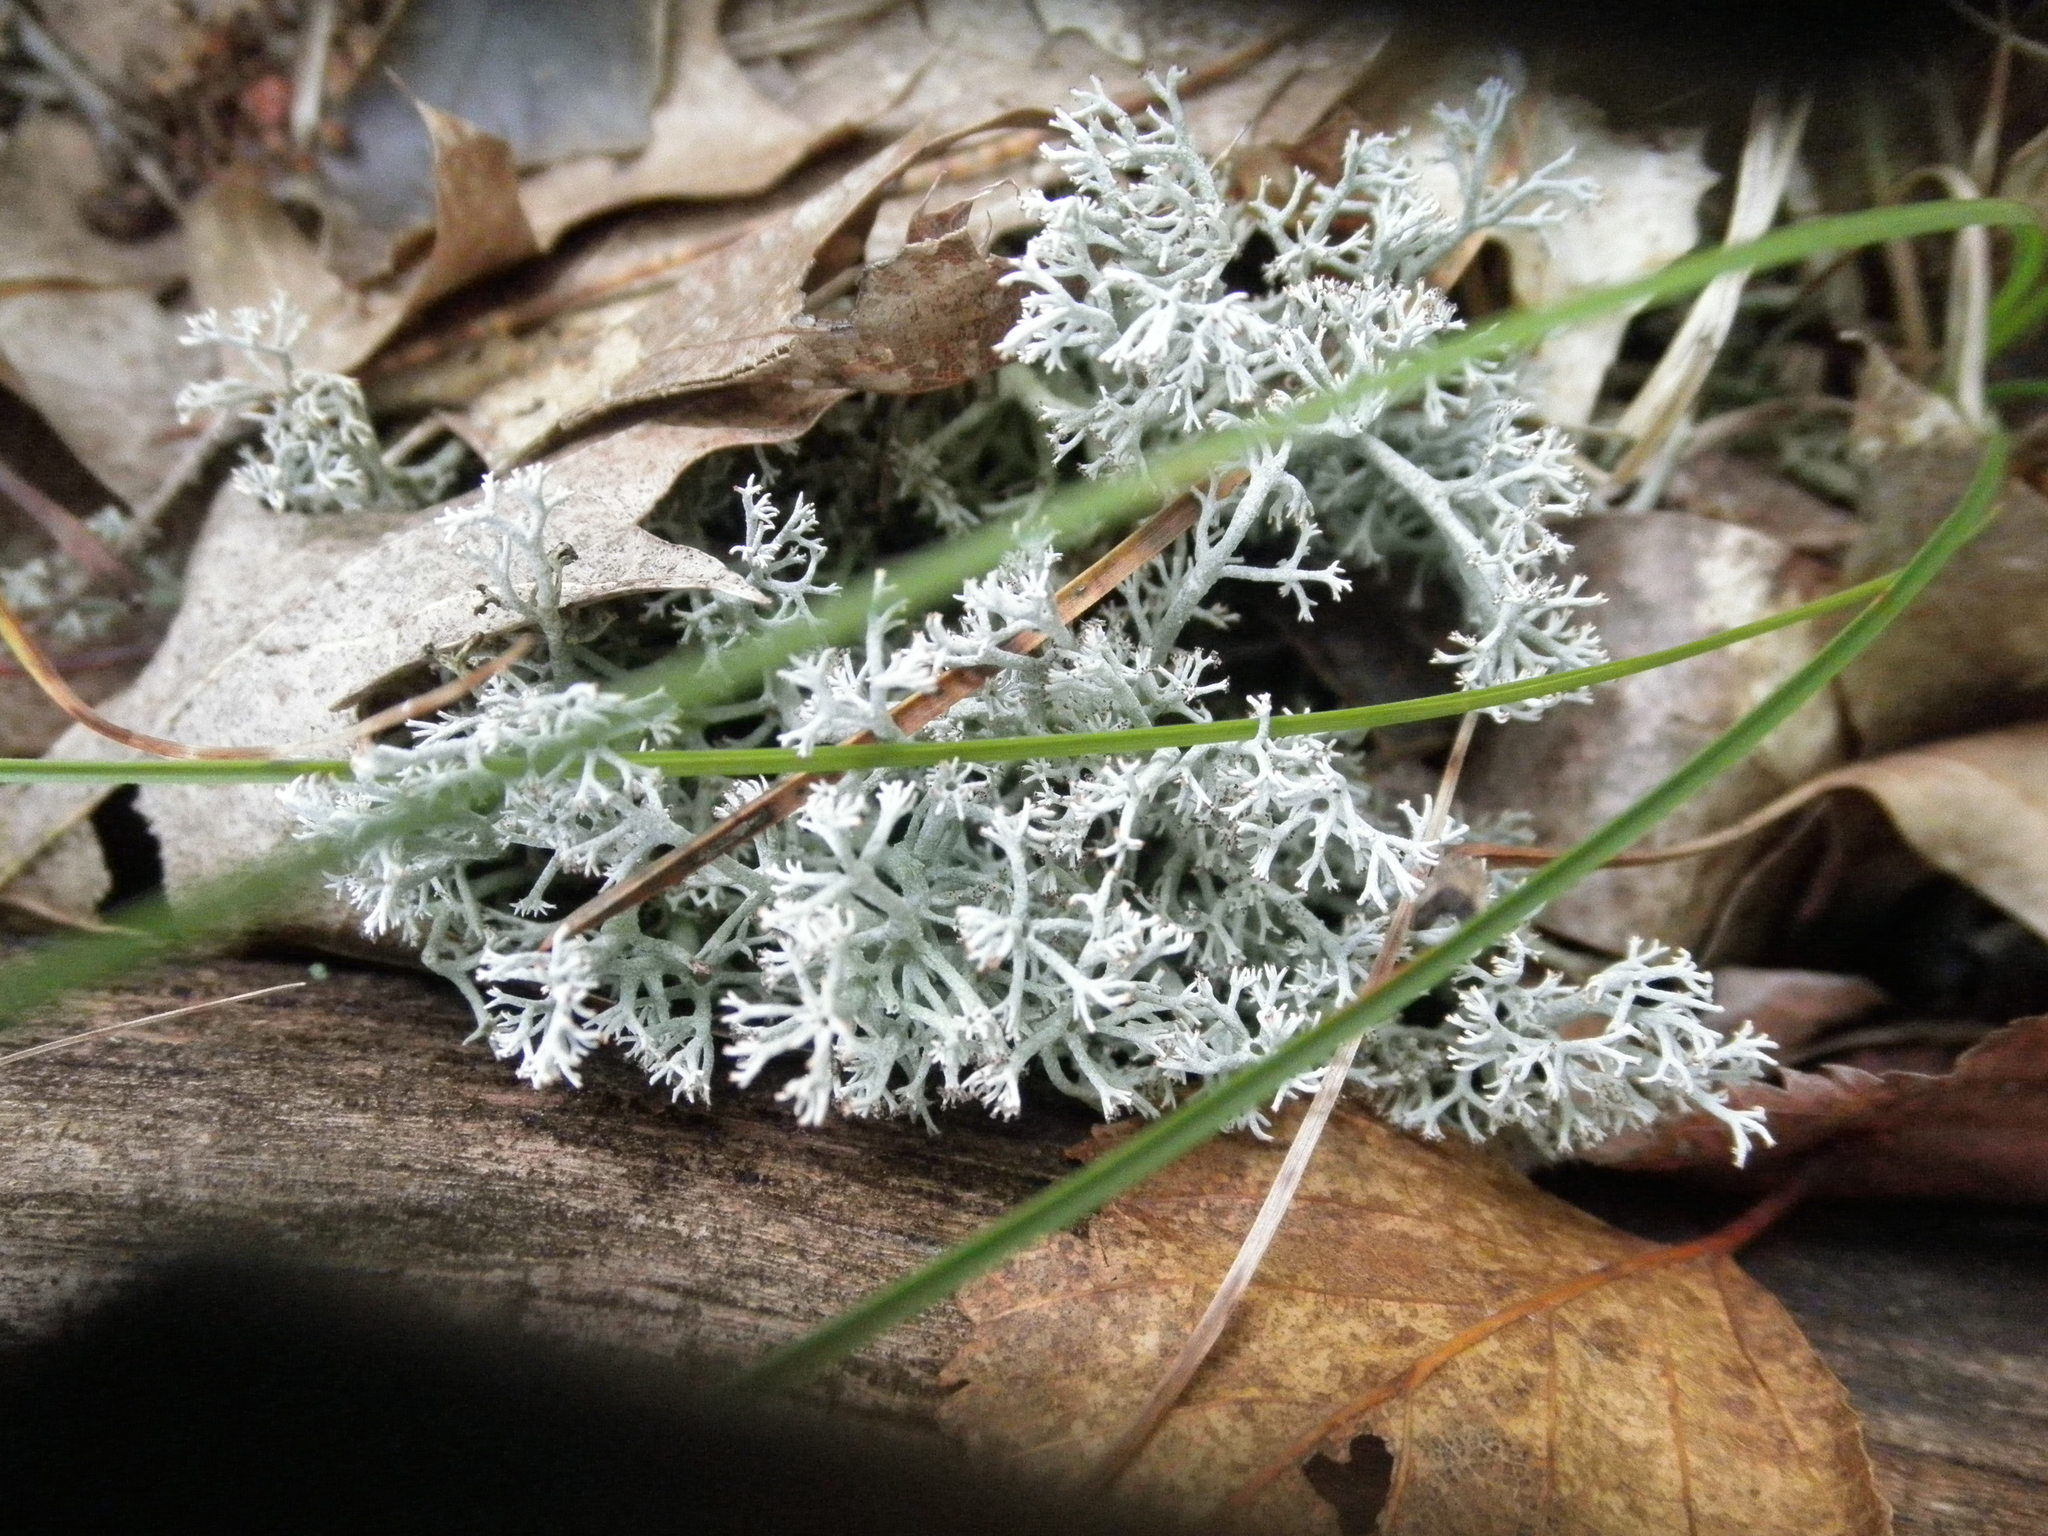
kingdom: Fungi
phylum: Ascomycota
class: Lecanoromycetes
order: Lecanorales
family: Cladoniaceae
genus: Cladonia
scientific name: Cladonia rangiferina
